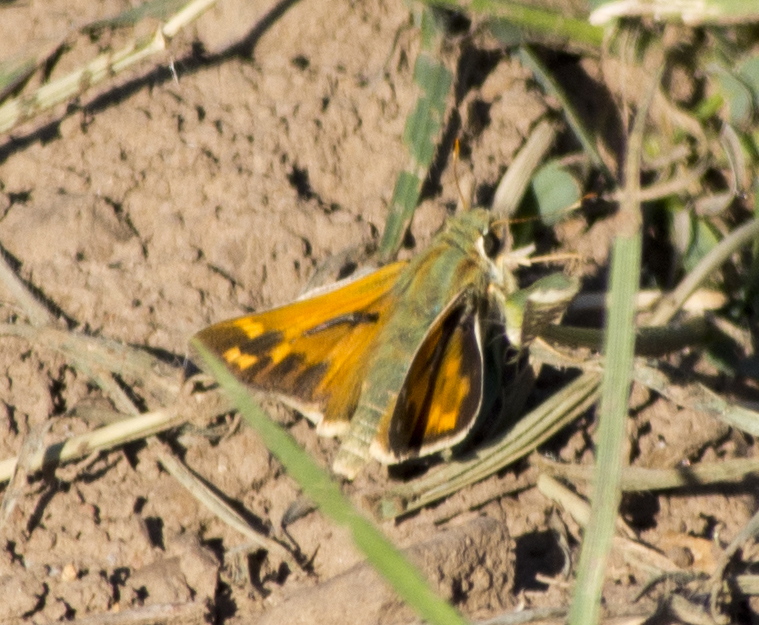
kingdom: Animalia
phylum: Arthropoda
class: Insecta
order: Lepidoptera
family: Hesperiidae
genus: Hesperia
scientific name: Hesperia juba
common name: Juba skipper
